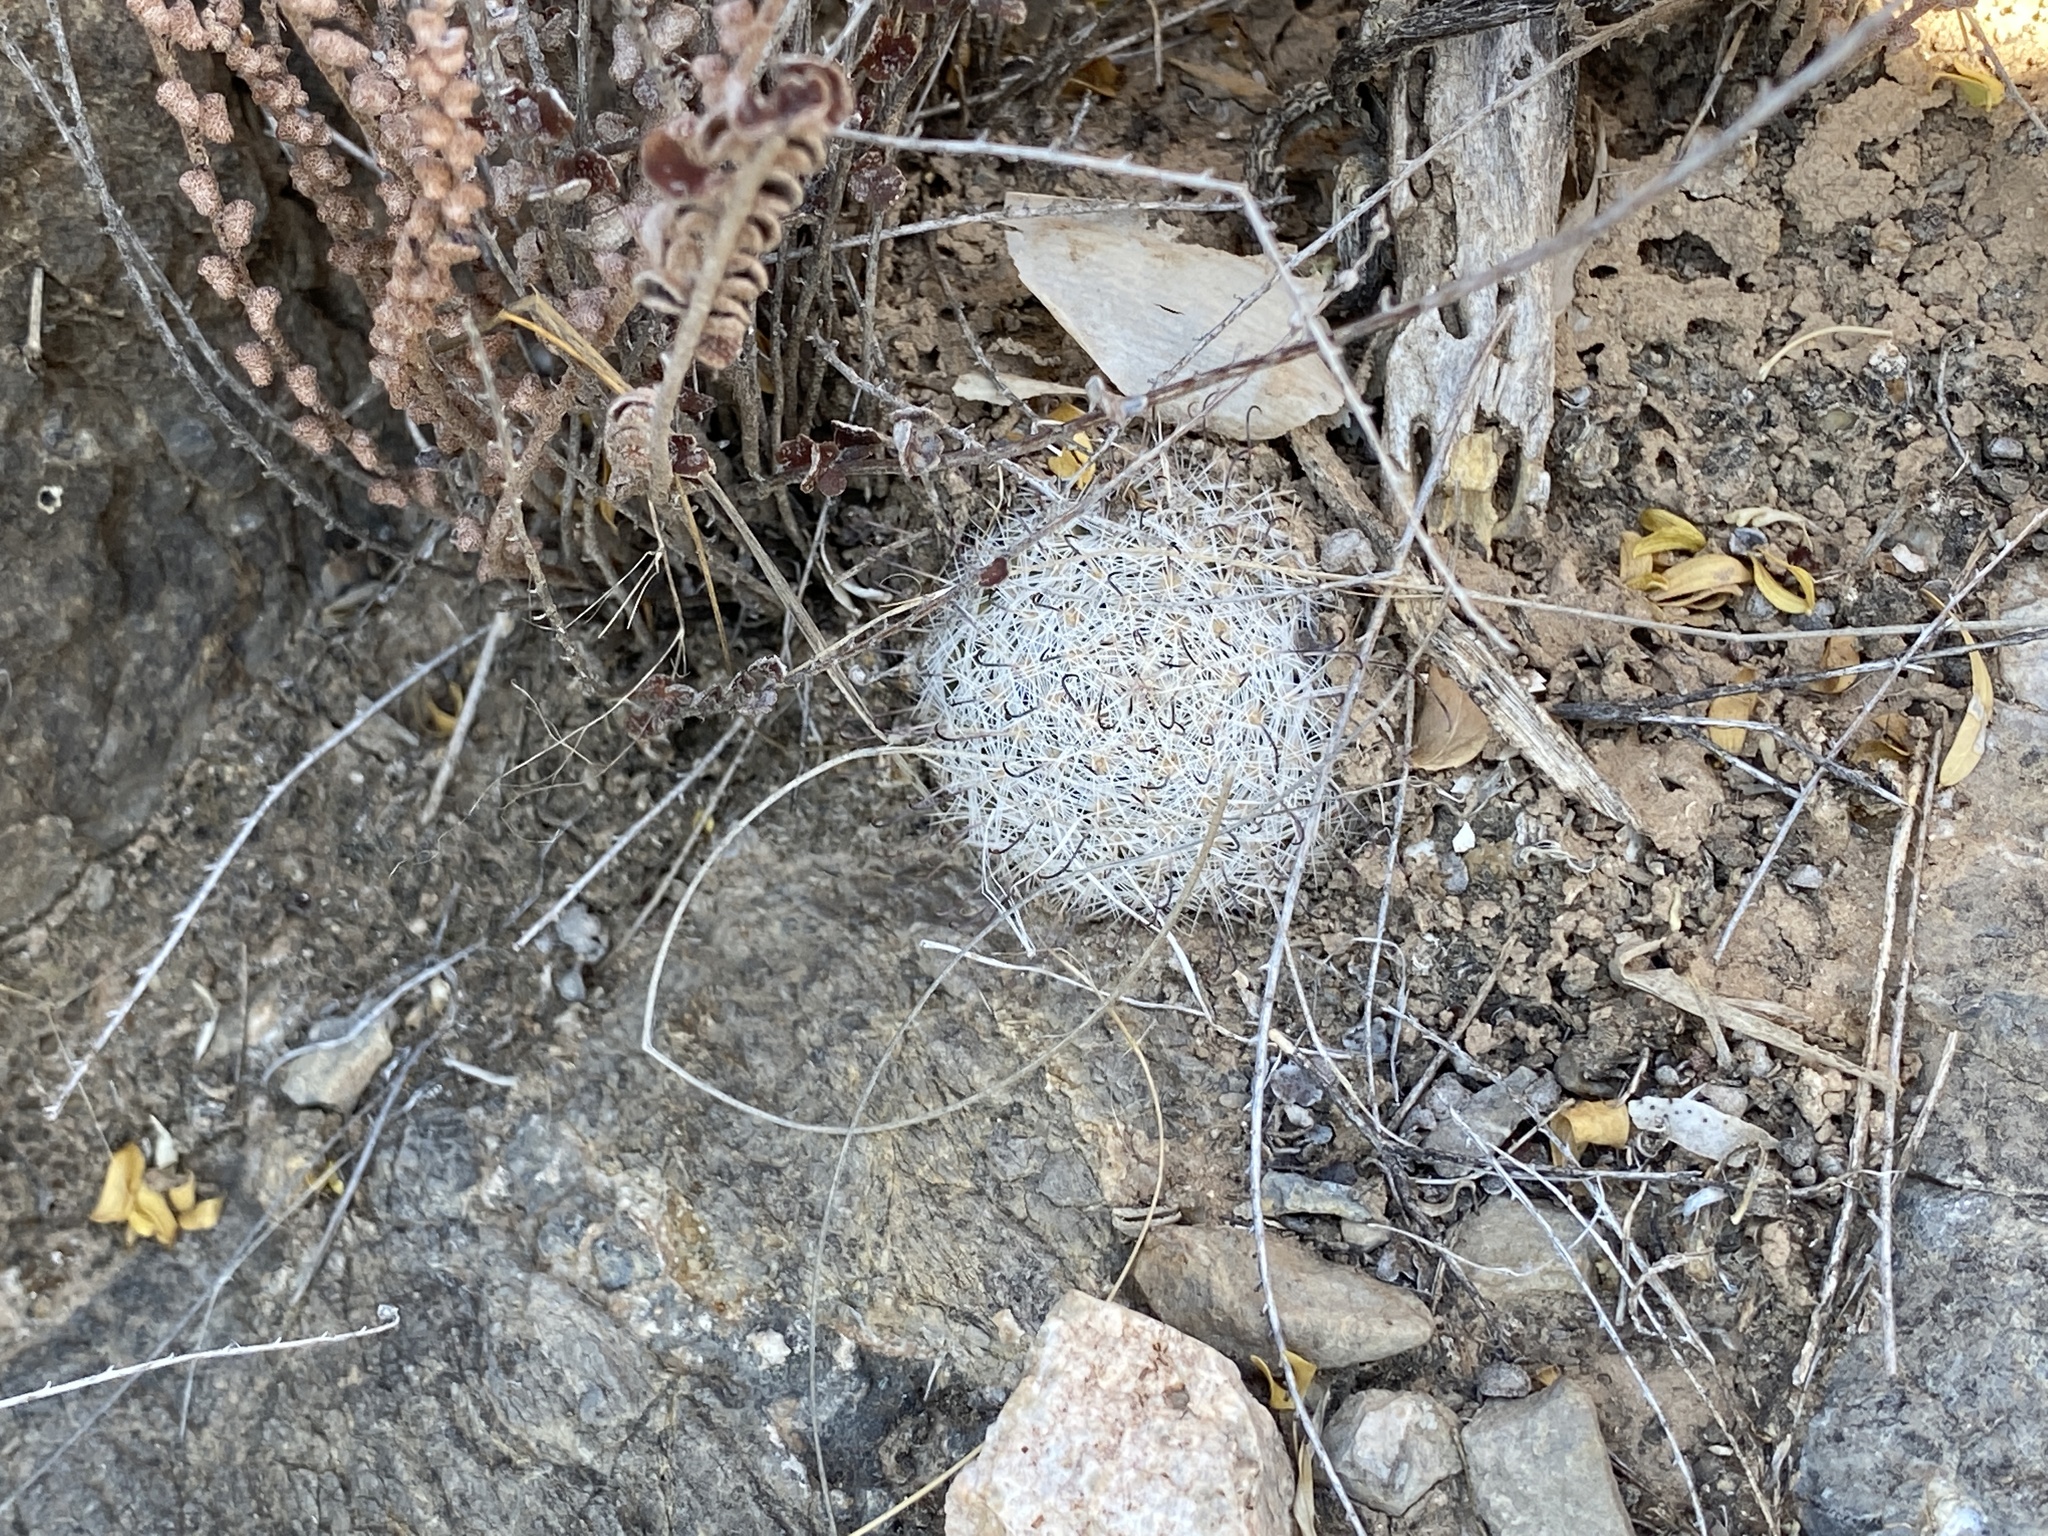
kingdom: Plantae
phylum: Tracheophyta
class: Magnoliopsida
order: Caryophyllales
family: Cactaceae
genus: Cochemiea
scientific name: Cochemiea grahamii
